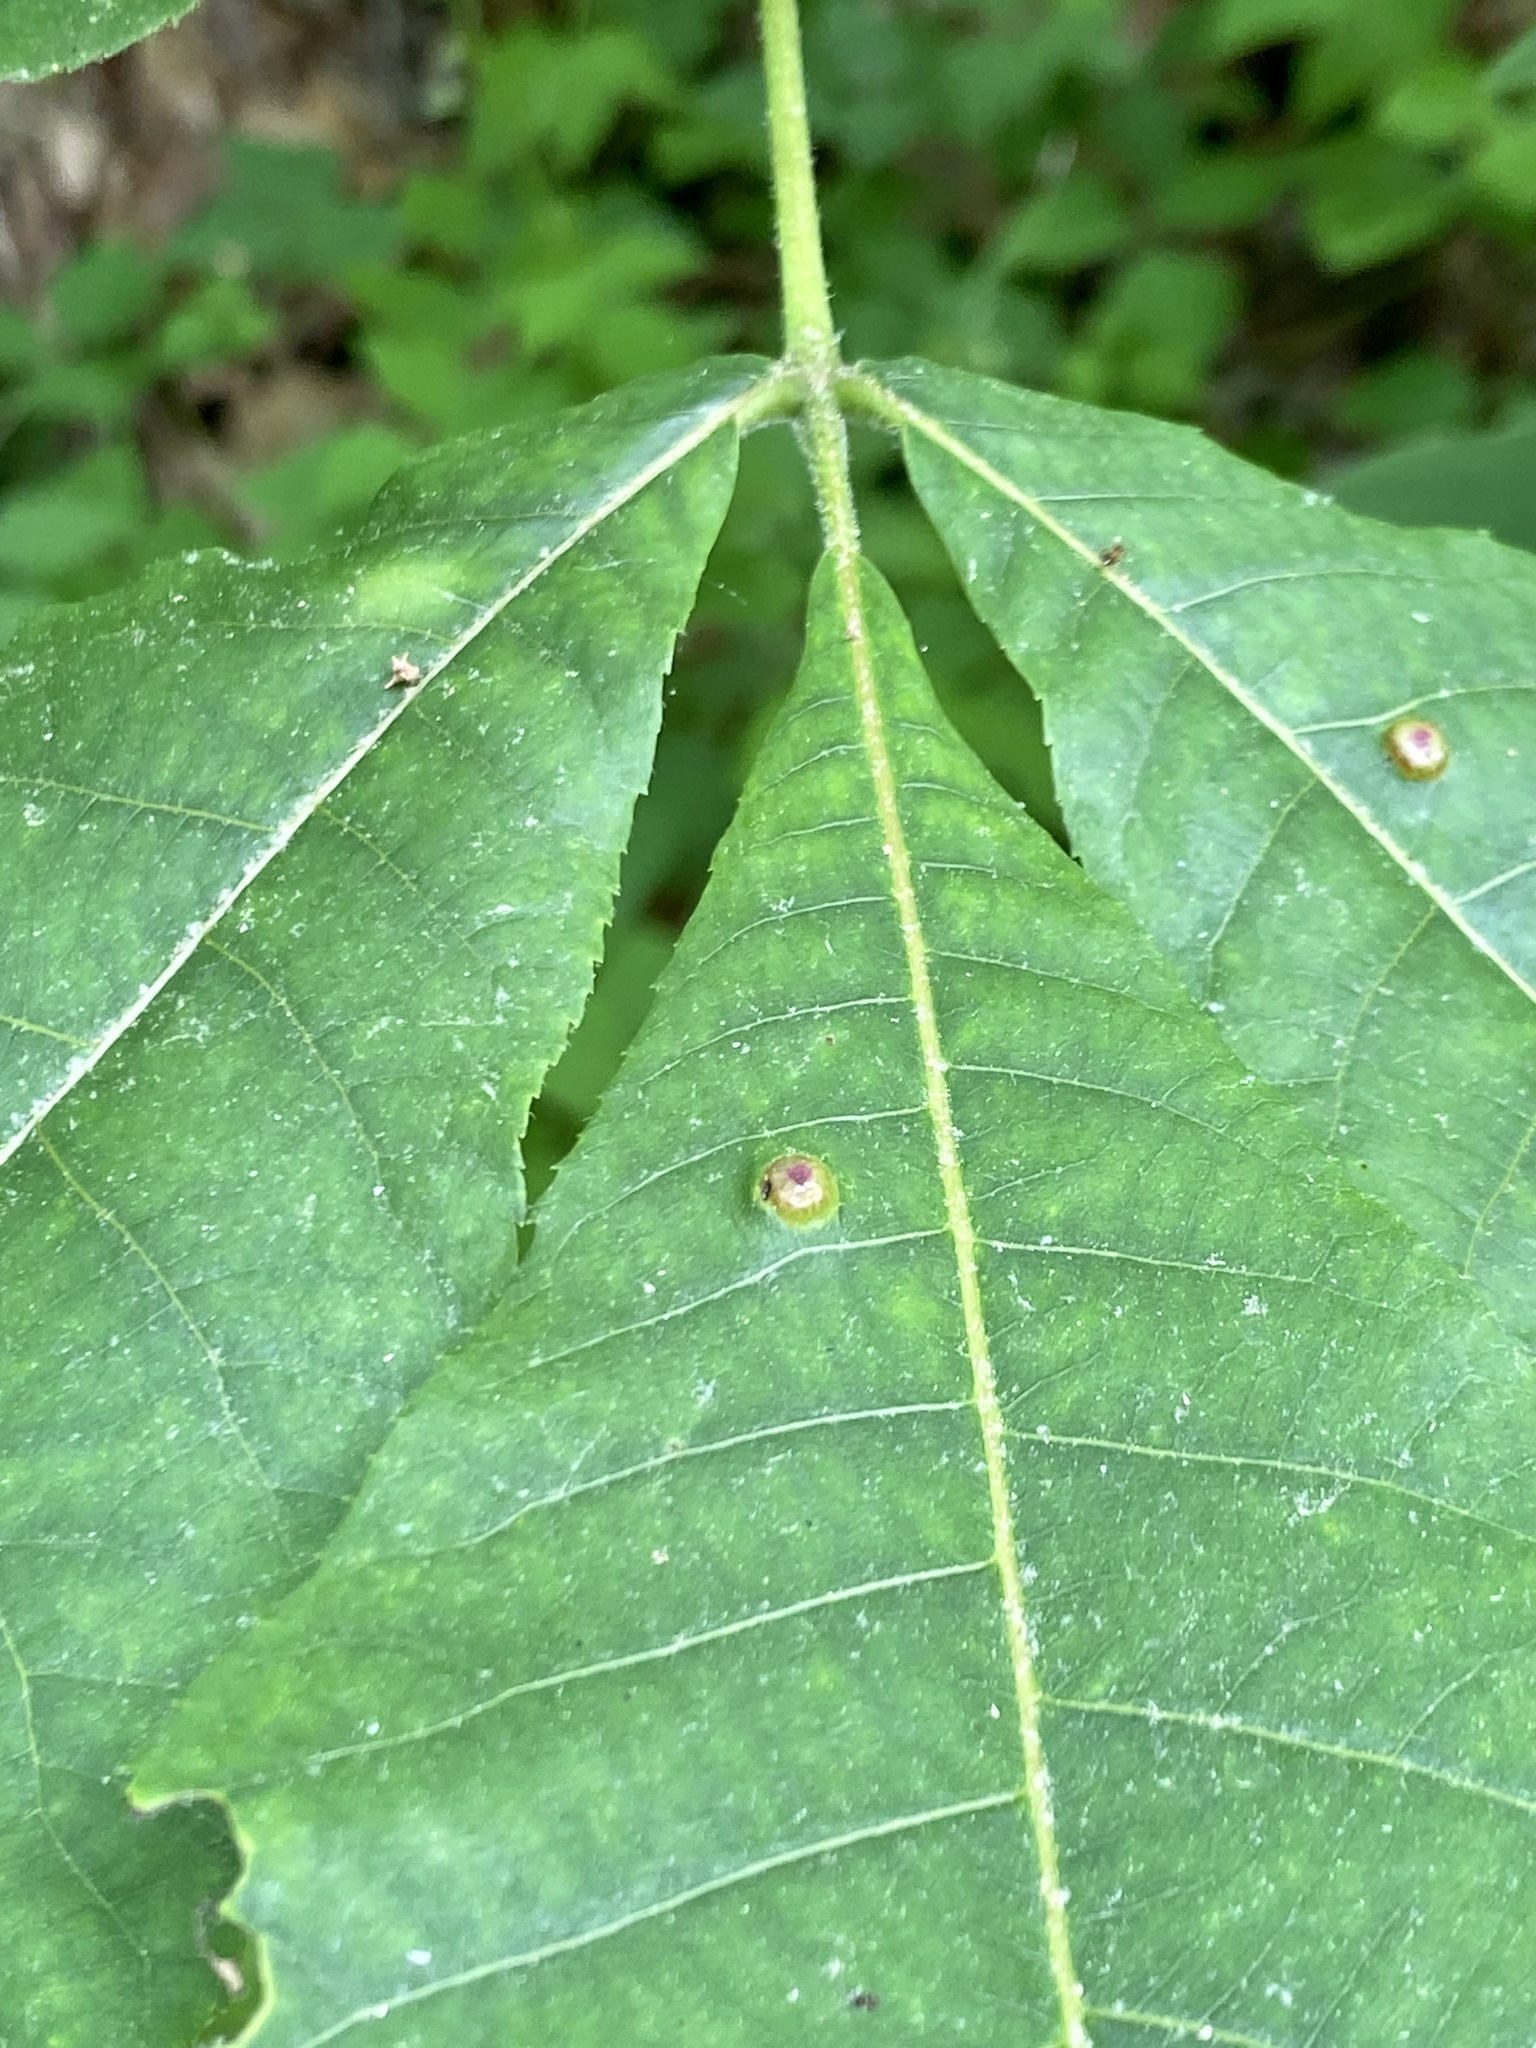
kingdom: Animalia
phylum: Arthropoda
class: Insecta
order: Hemiptera
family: Phylloxeridae
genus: Phylloxera
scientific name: Phylloxera foveola
